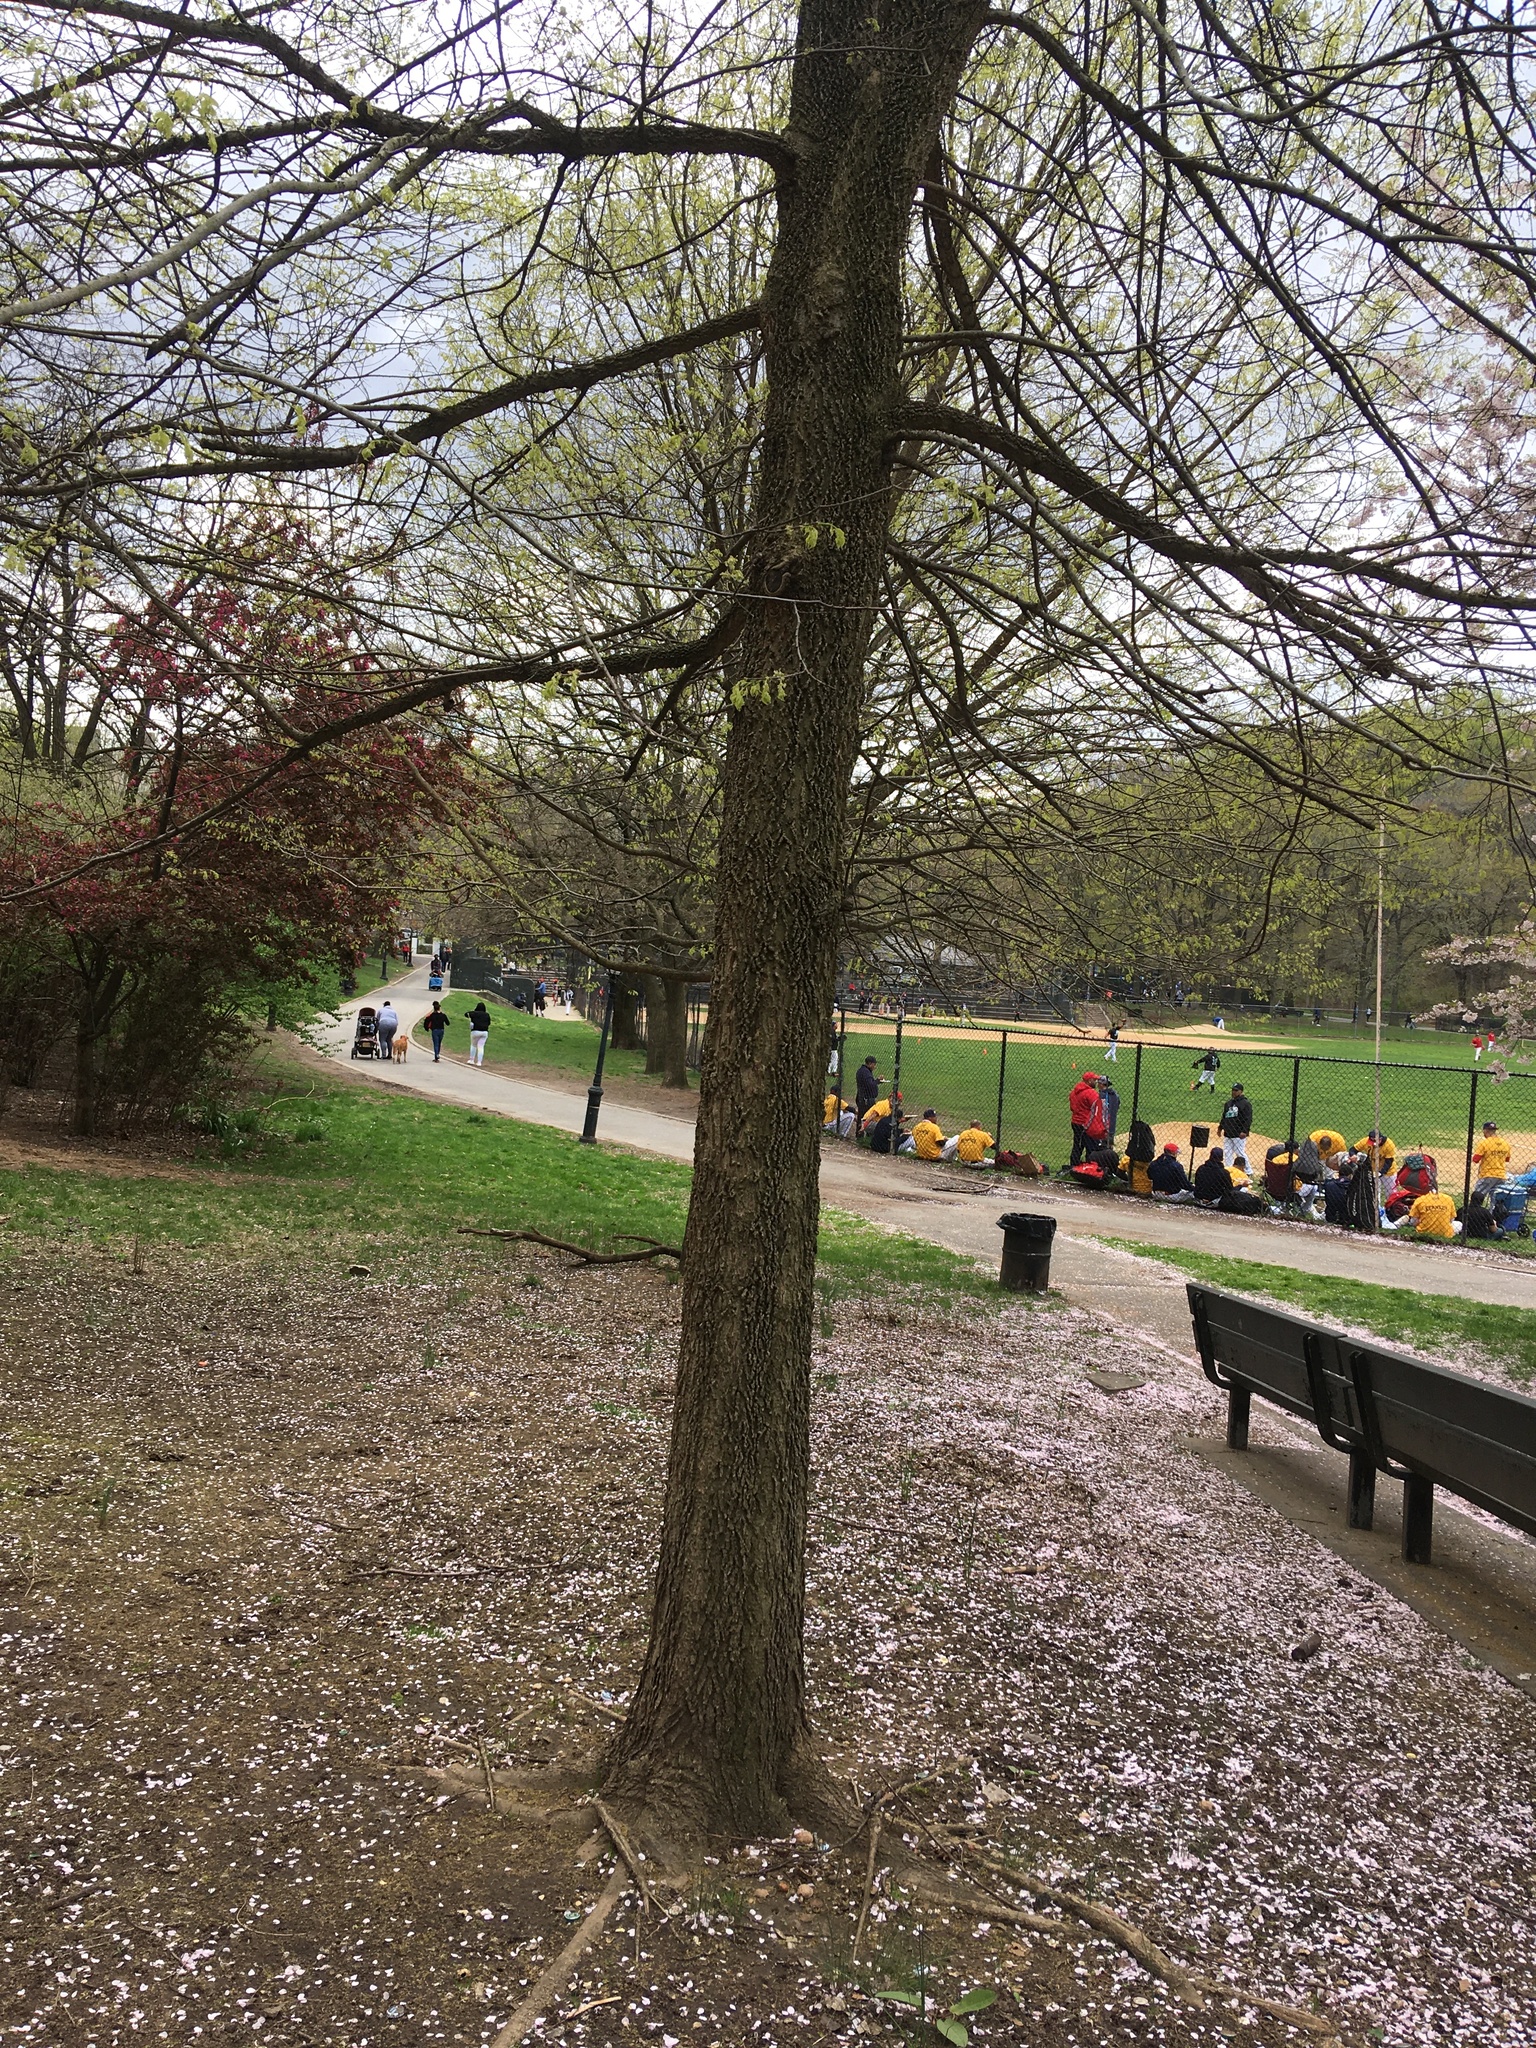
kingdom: Plantae
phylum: Tracheophyta
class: Magnoliopsida
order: Rosales
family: Cannabaceae
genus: Celtis
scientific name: Celtis occidentalis
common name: Common hackberry
